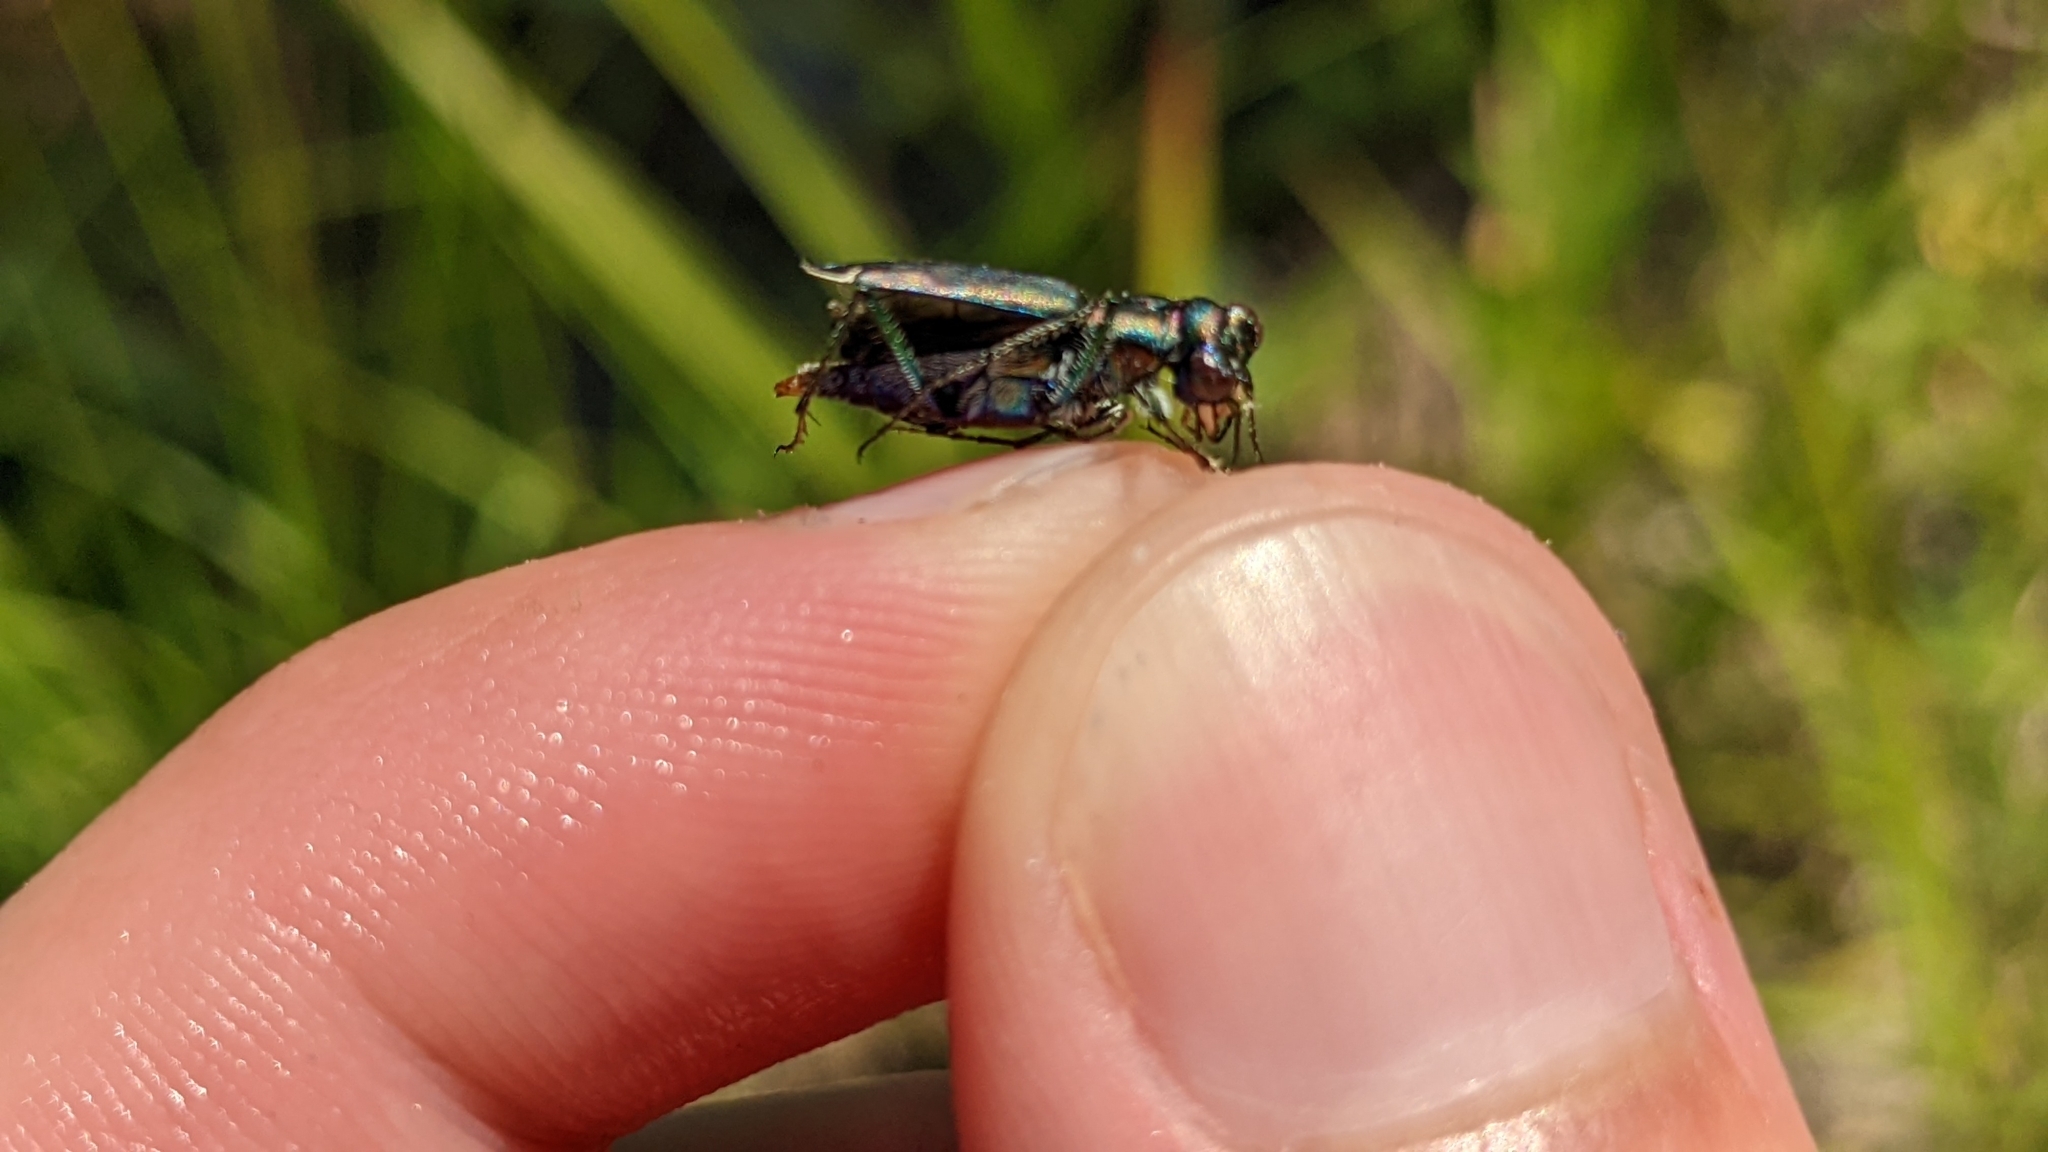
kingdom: Animalia
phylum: Arthropoda
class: Insecta
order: Coleoptera
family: Carabidae
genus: Cicindela
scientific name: Cicindela punctulata
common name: Punctured tiger beetle
